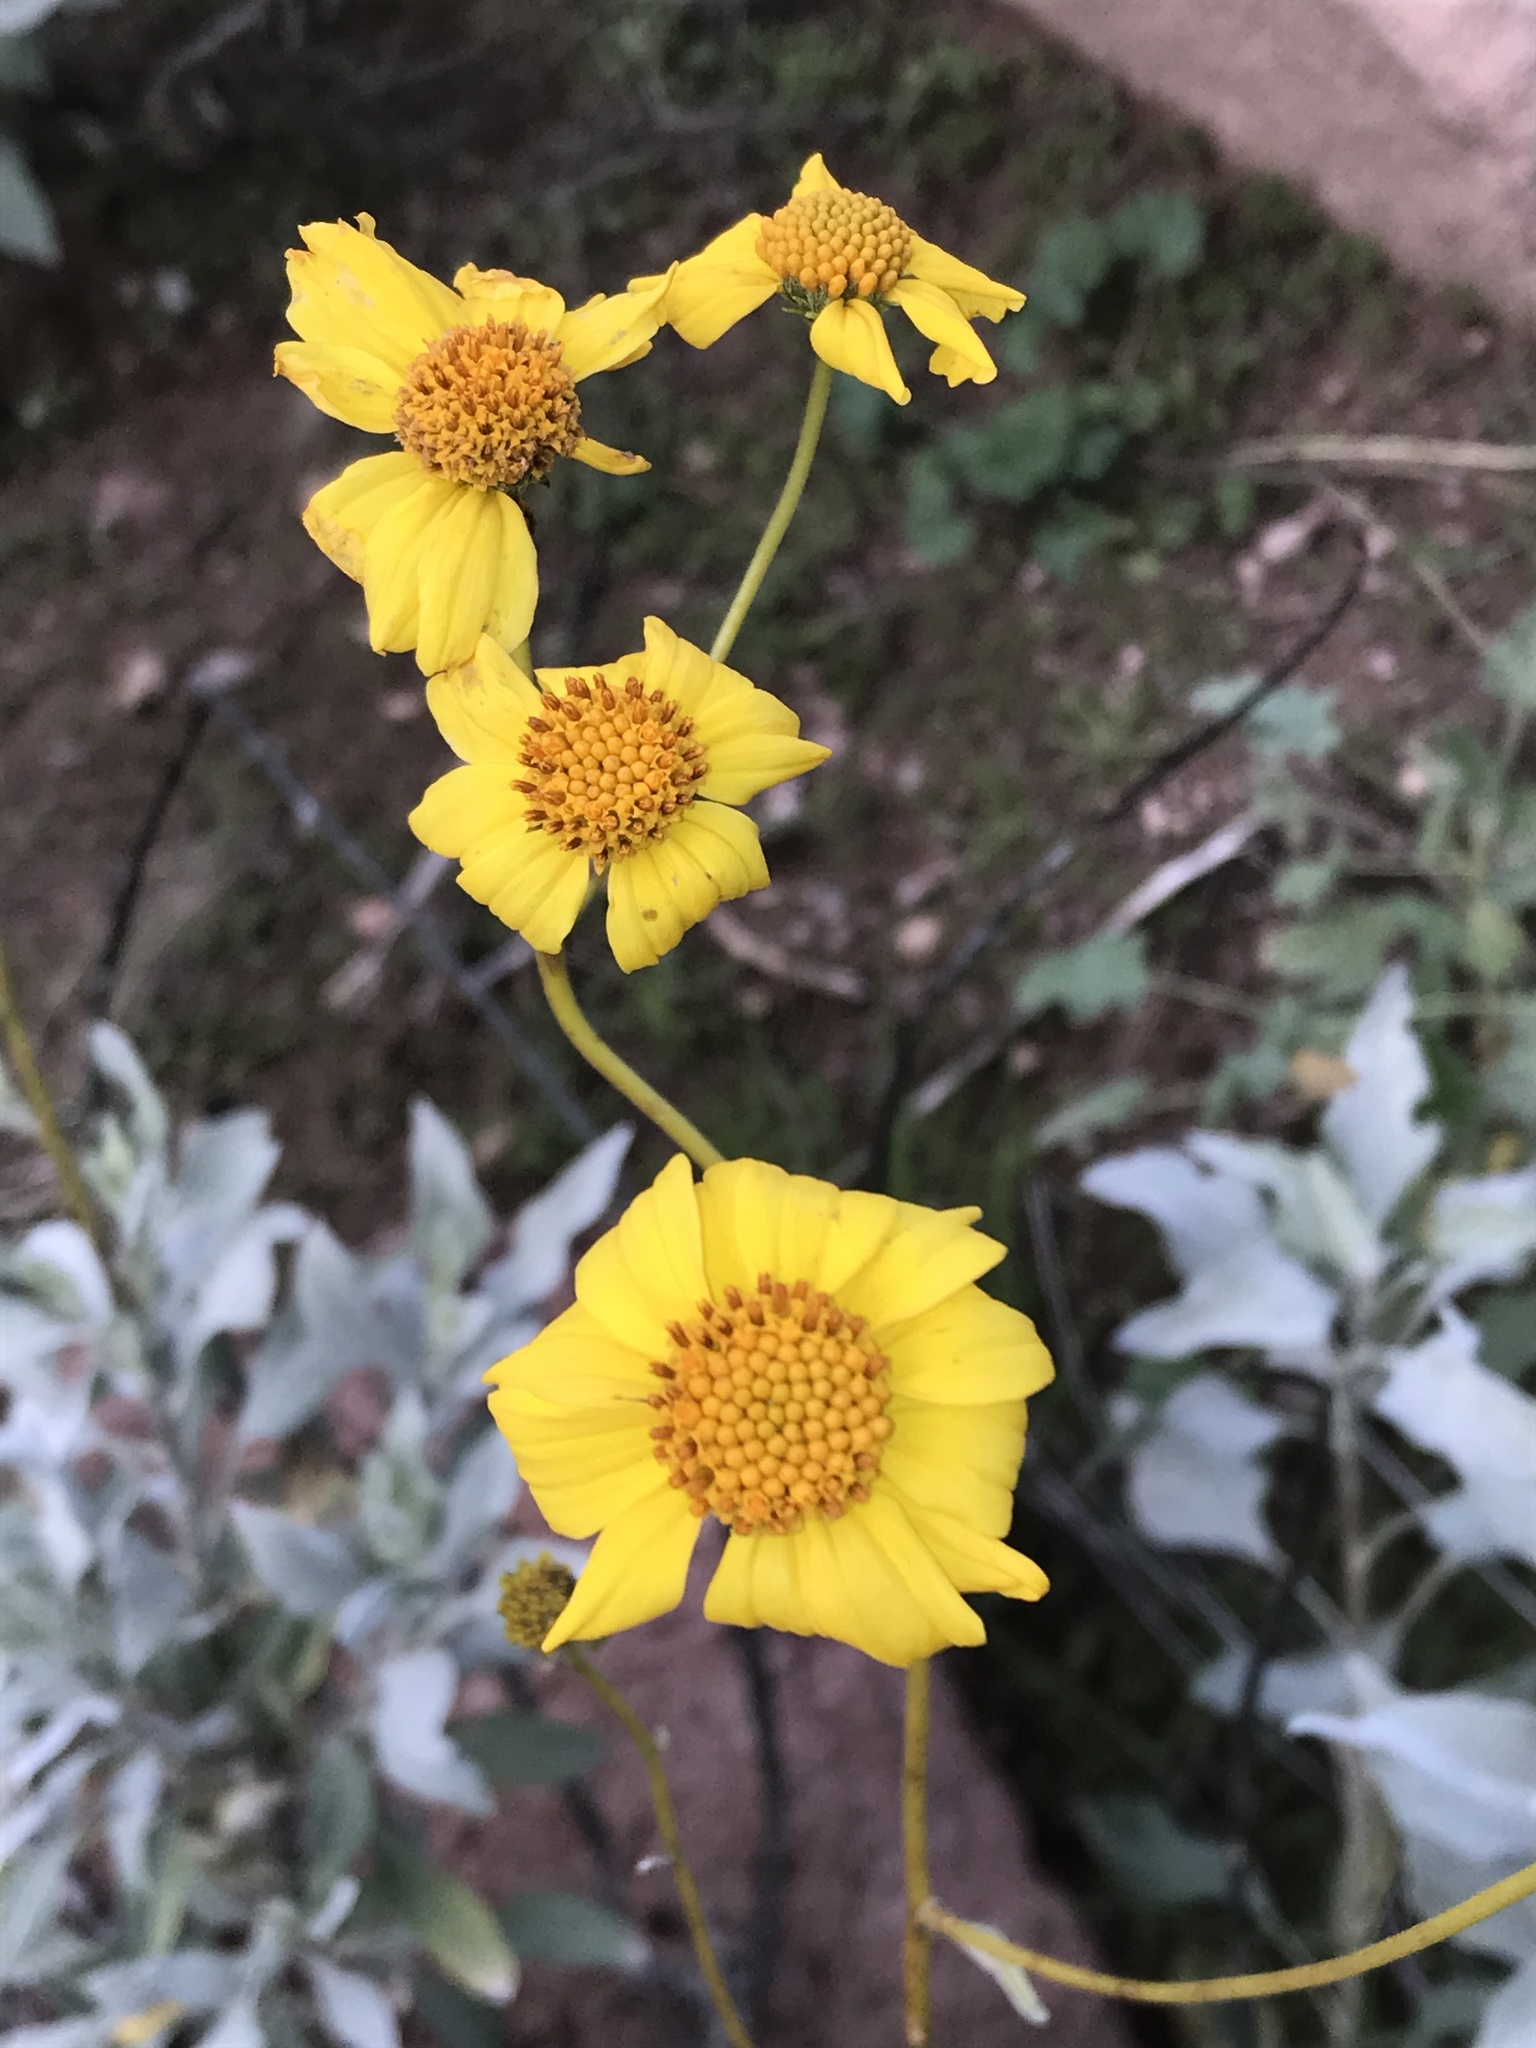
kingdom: Plantae
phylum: Tracheophyta
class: Magnoliopsida
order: Asterales
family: Asteraceae
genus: Encelia
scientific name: Encelia farinosa
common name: Brittlebush
